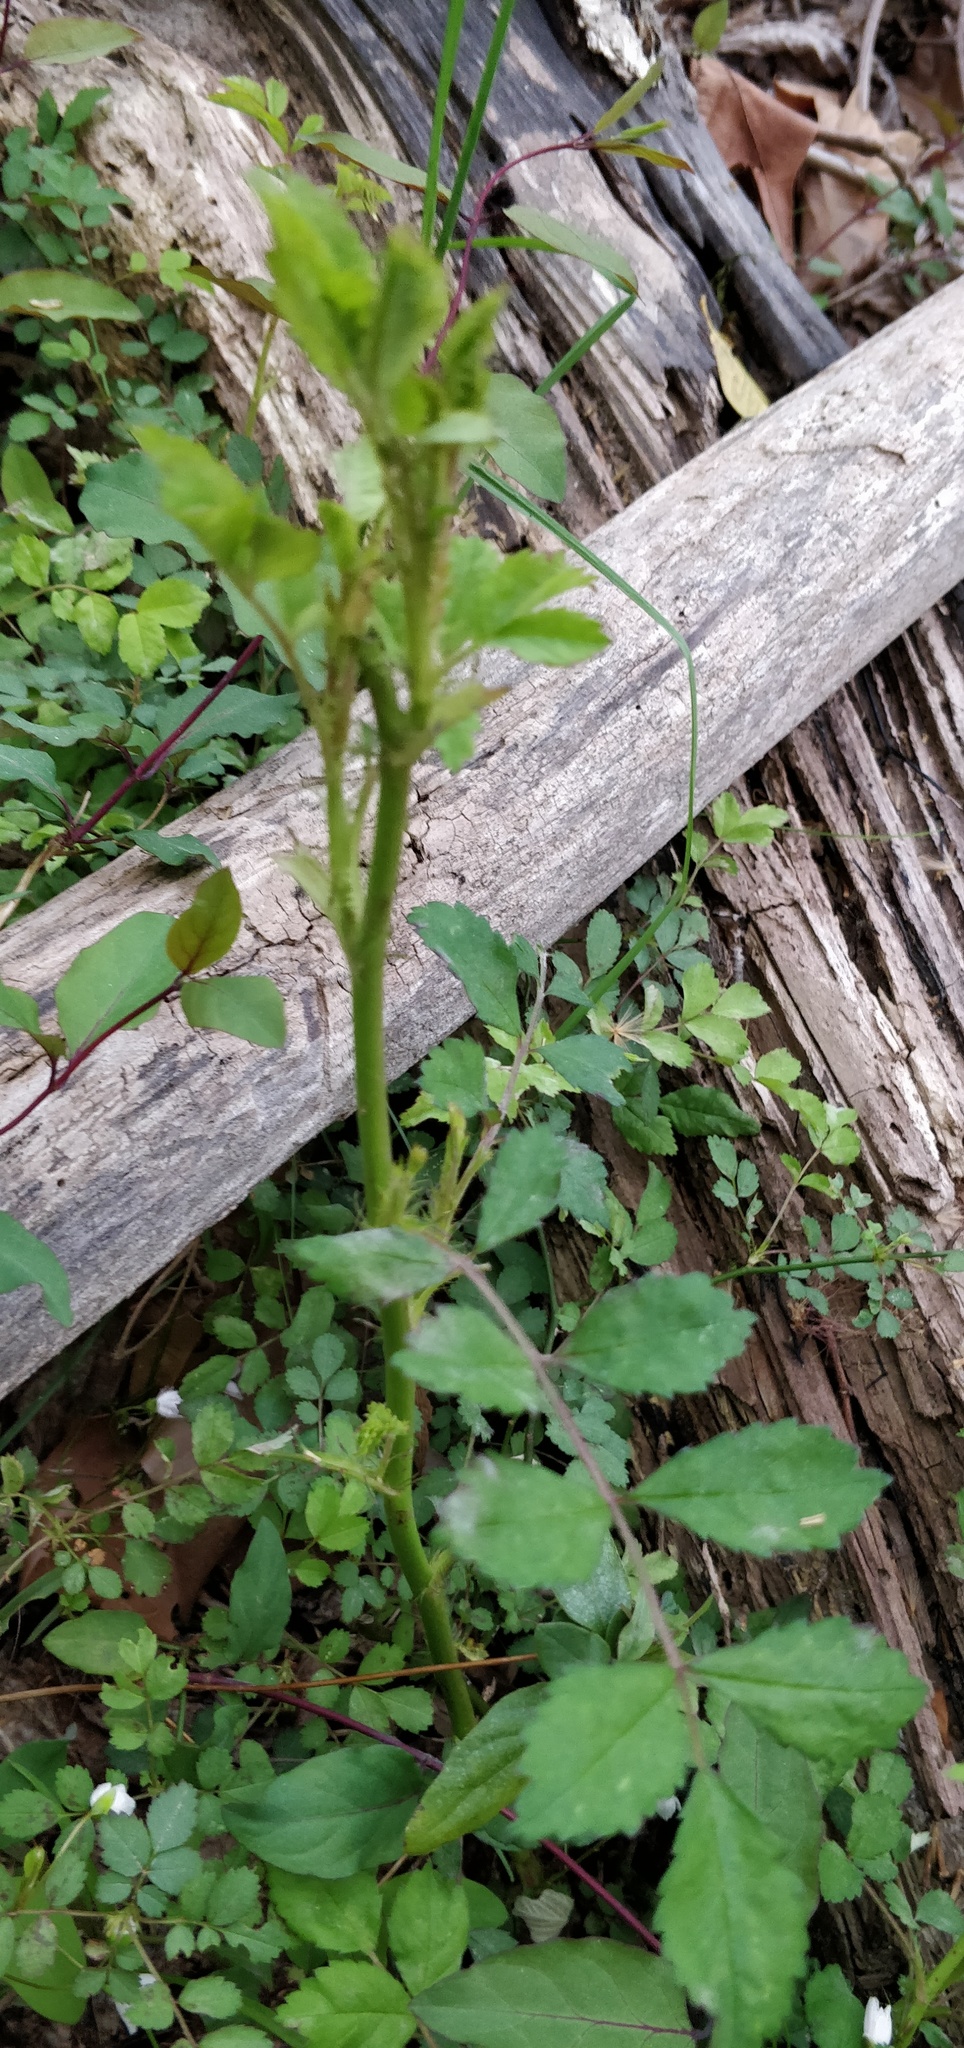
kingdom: Plantae
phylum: Tracheophyta
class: Magnoliopsida
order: Rosales
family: Rosaceae
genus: Rosa
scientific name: Rosa multiflora
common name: Multiflora rose
